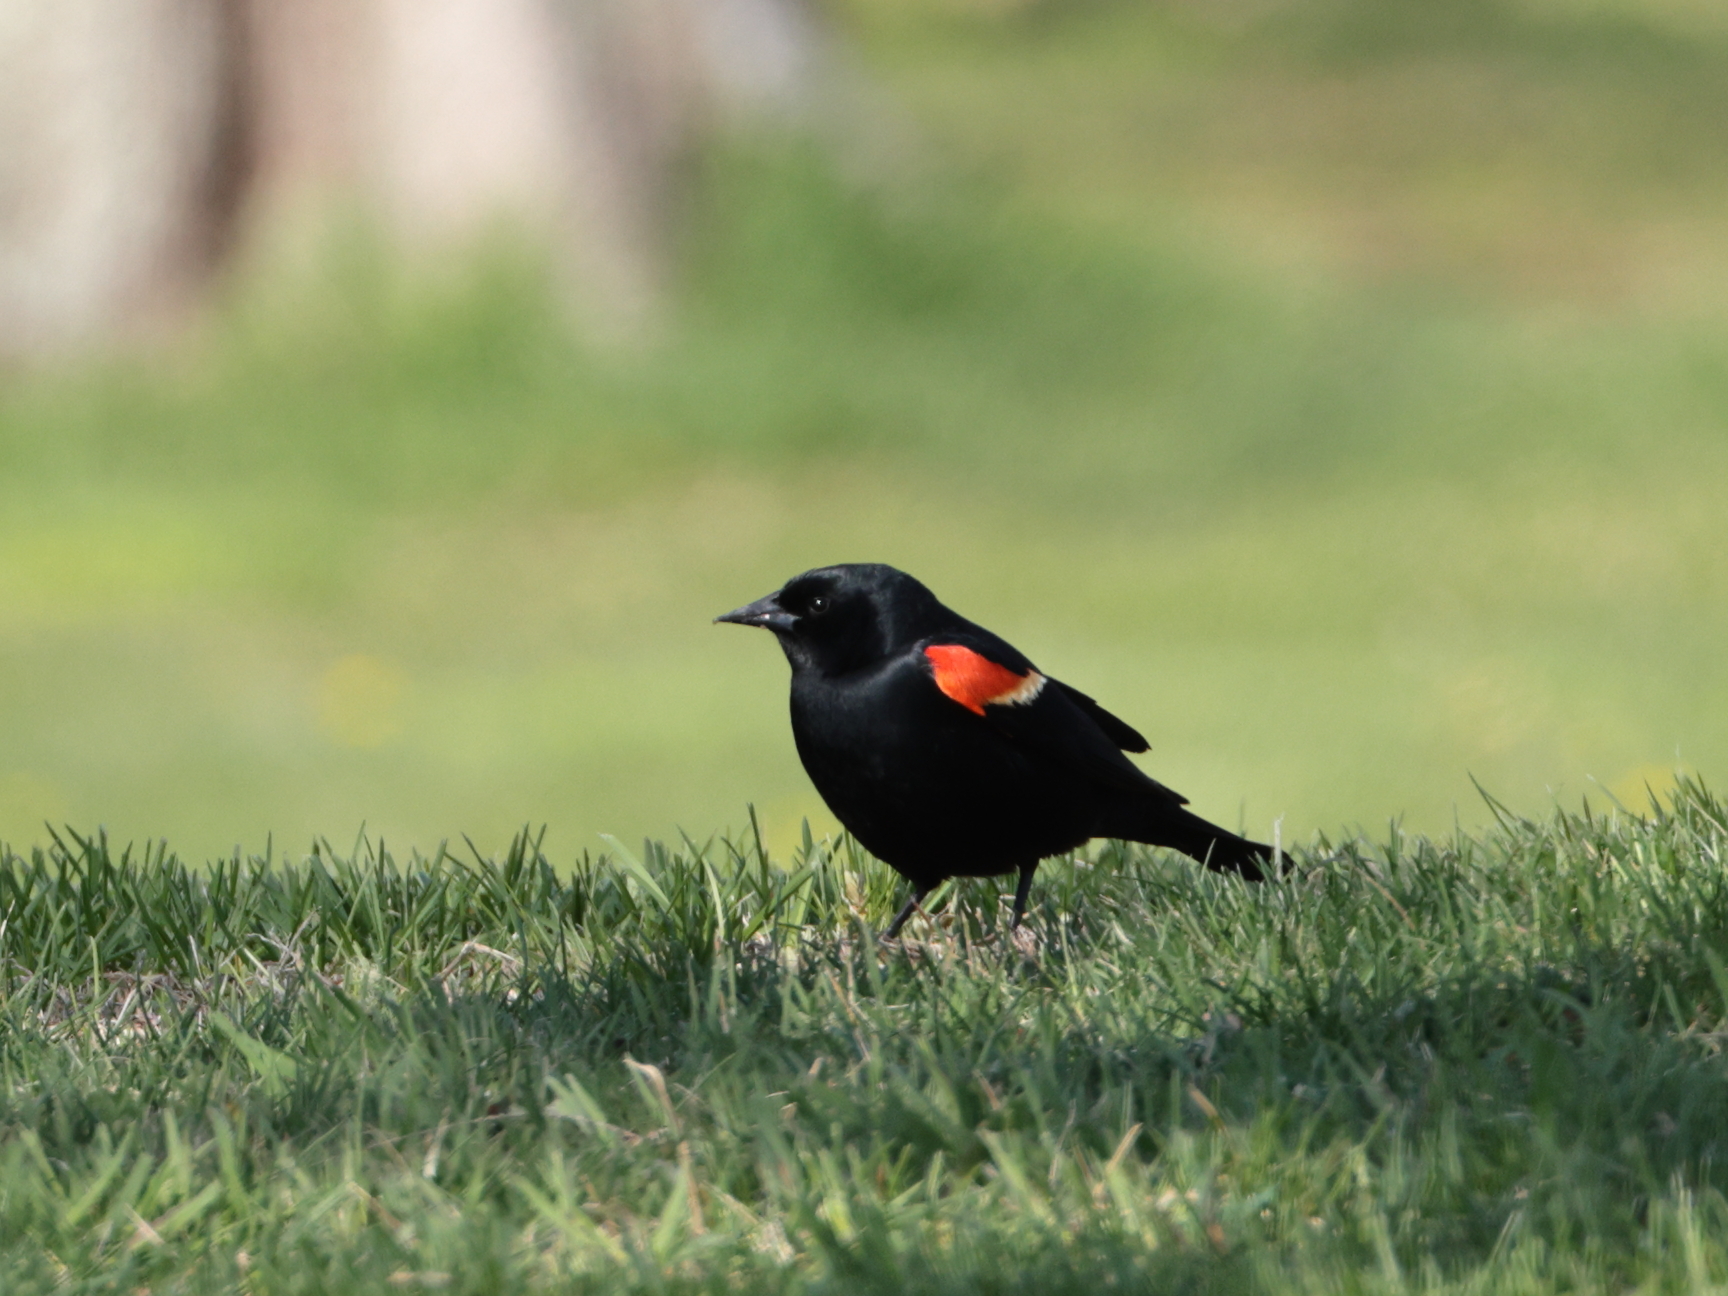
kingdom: Animalia
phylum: Chordata
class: Aves
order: Passeriformes
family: Icteridae
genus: Agelaius
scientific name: Agelaius phoeniceus
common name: Red-winged blackbird
